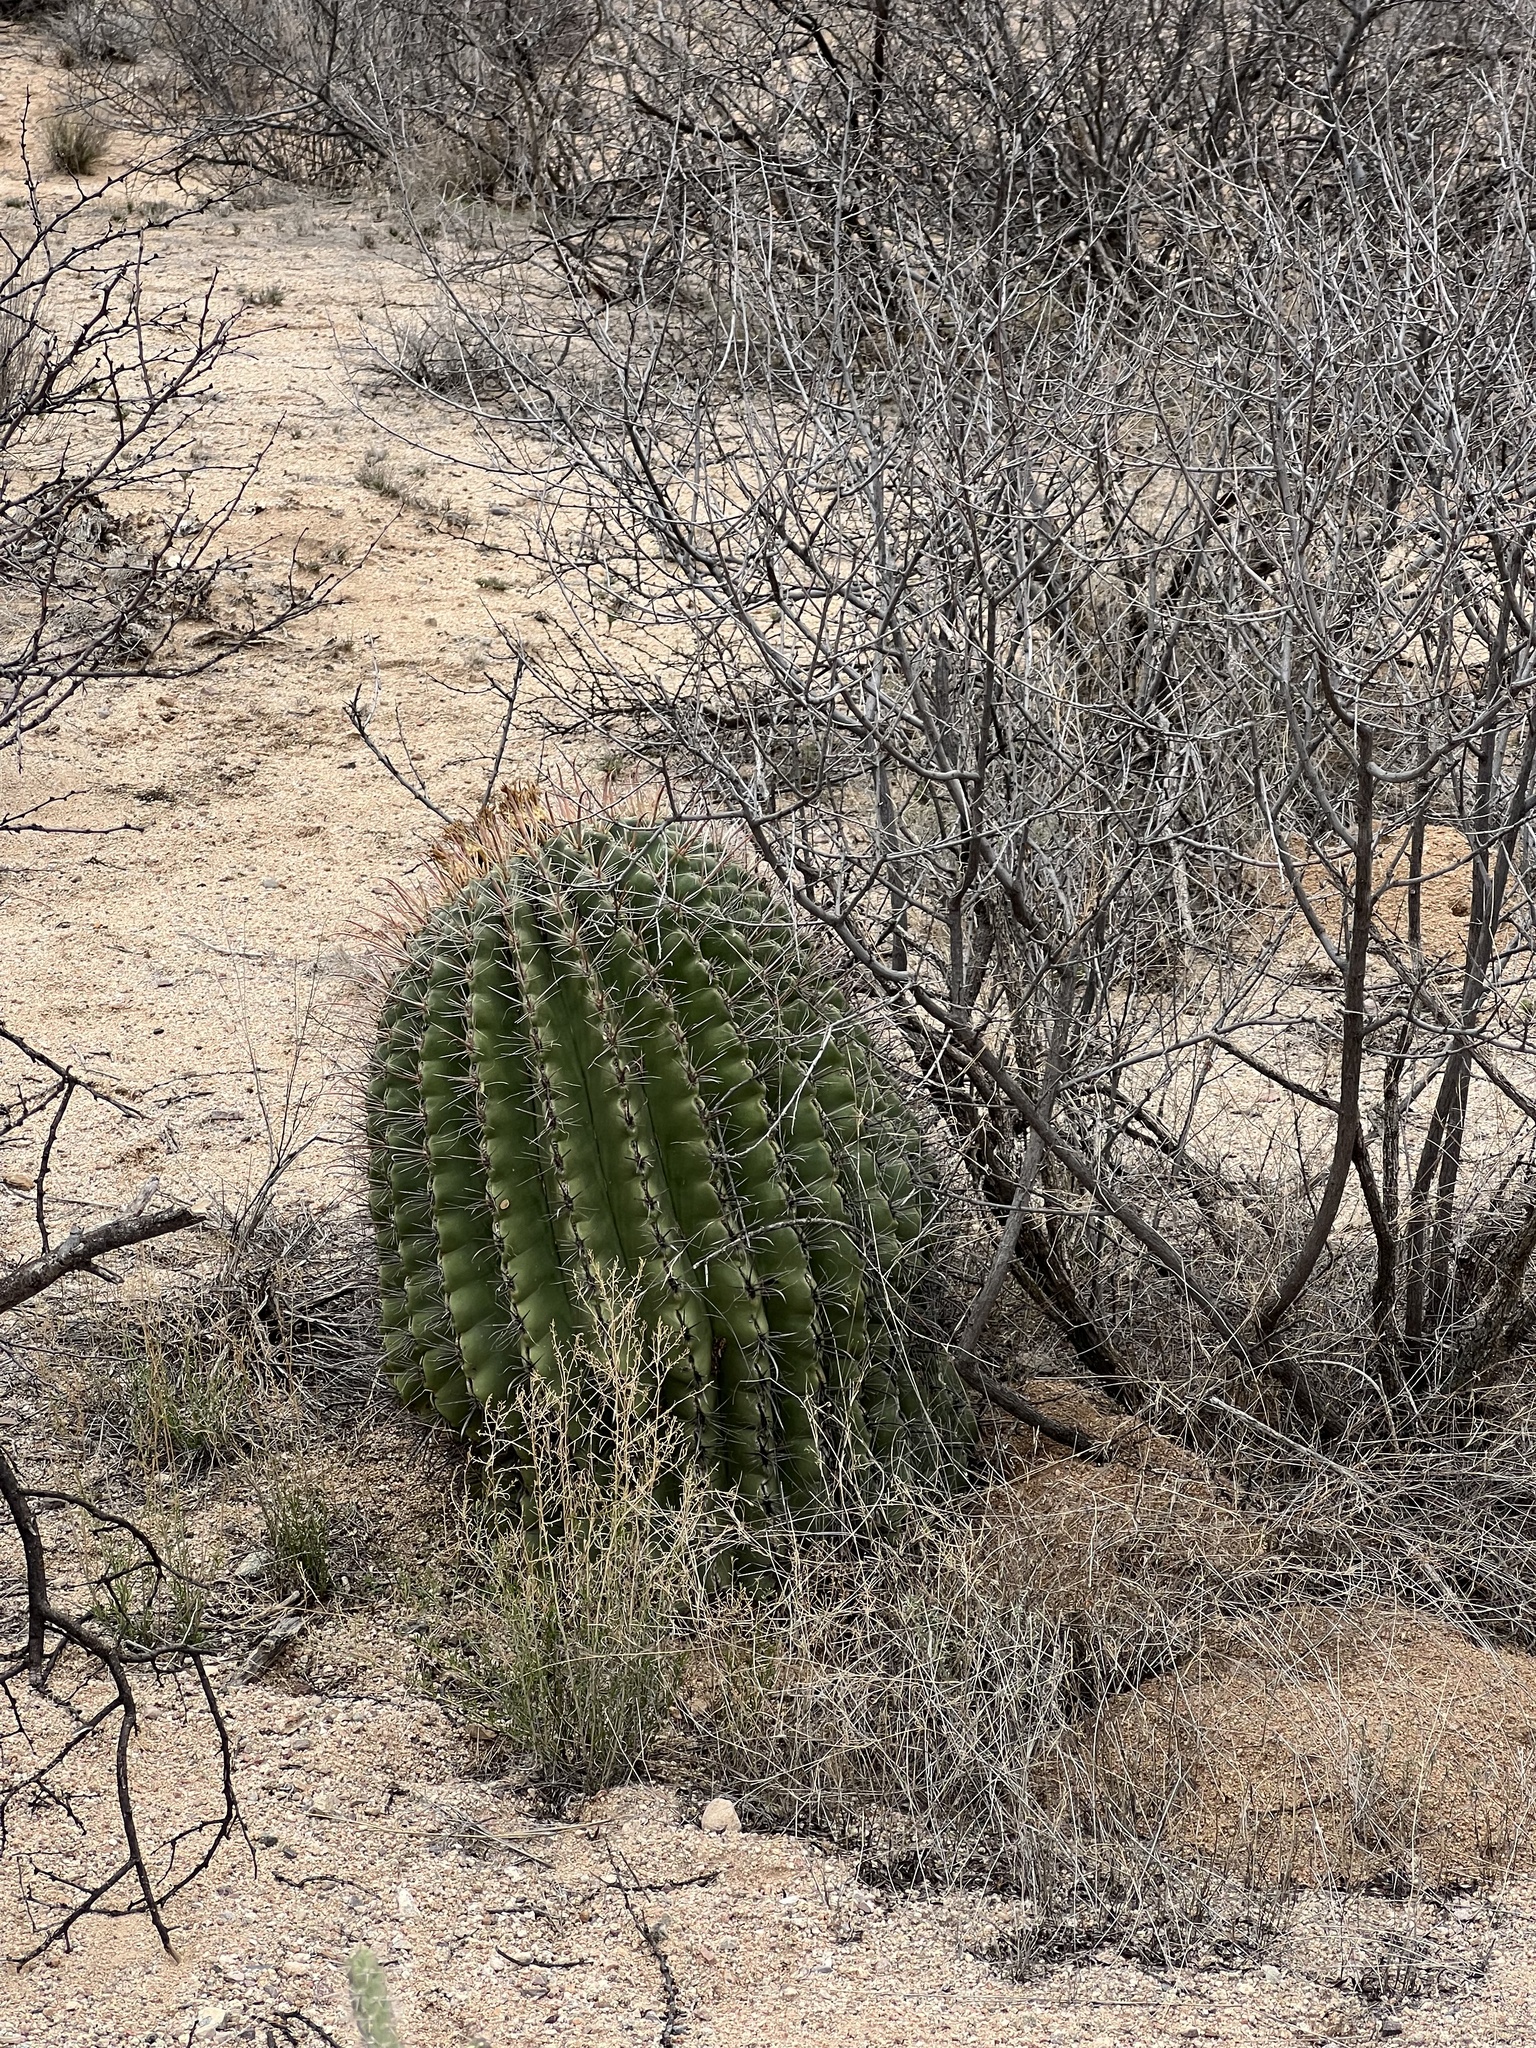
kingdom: Plantae
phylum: Tracheophyta
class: Magnoliopsida
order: Caryophyllales
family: Cactaceae
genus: Ferocactus
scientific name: Ferocactus wislizeni
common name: Candy barrel cactus
